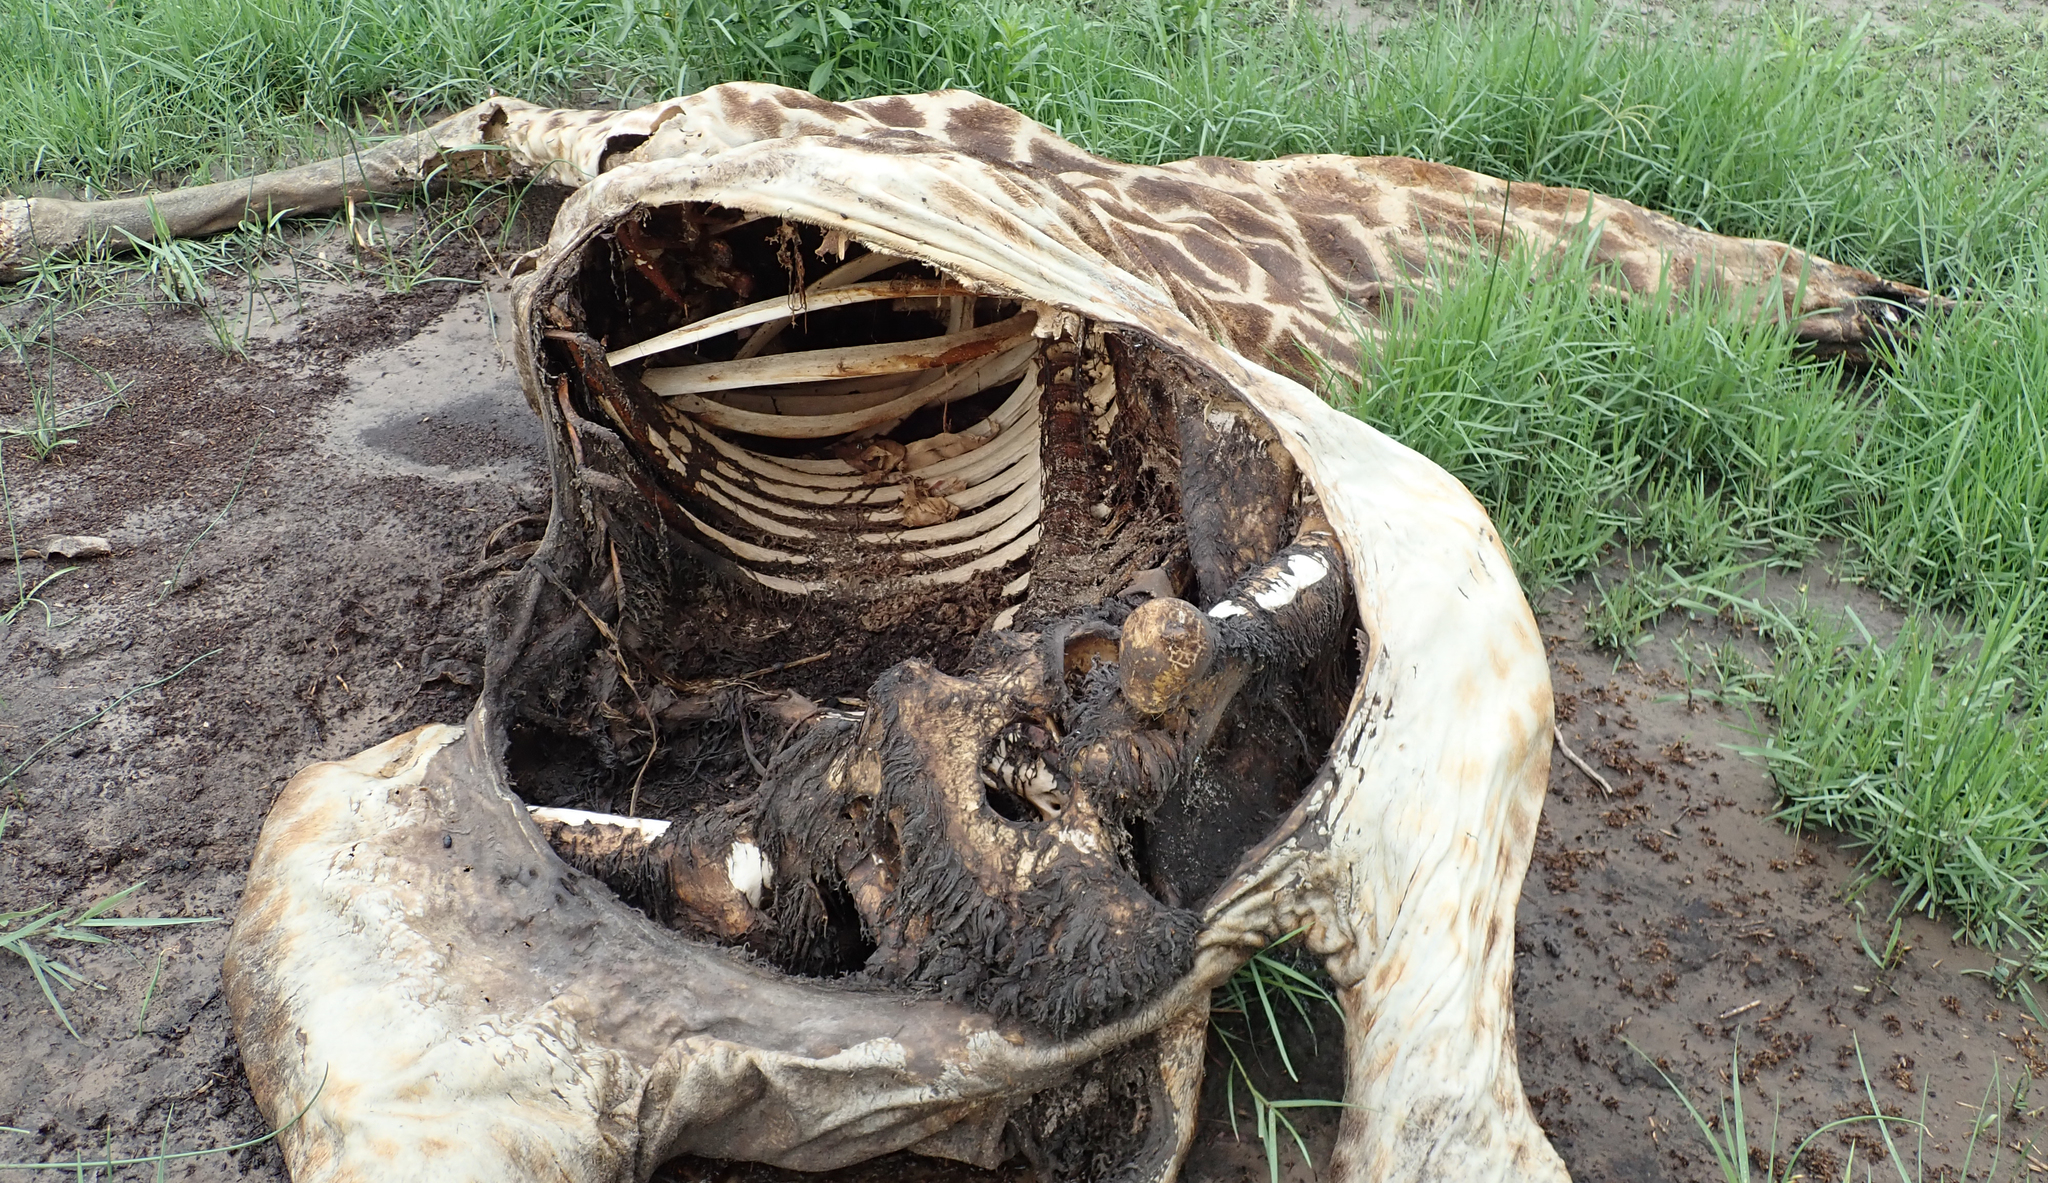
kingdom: Animalia
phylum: Chordata
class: Mammalia
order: Artiodactyla
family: Giraffidae
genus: Giraffa
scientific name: Giraffa giraffa
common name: Southern giraffe
